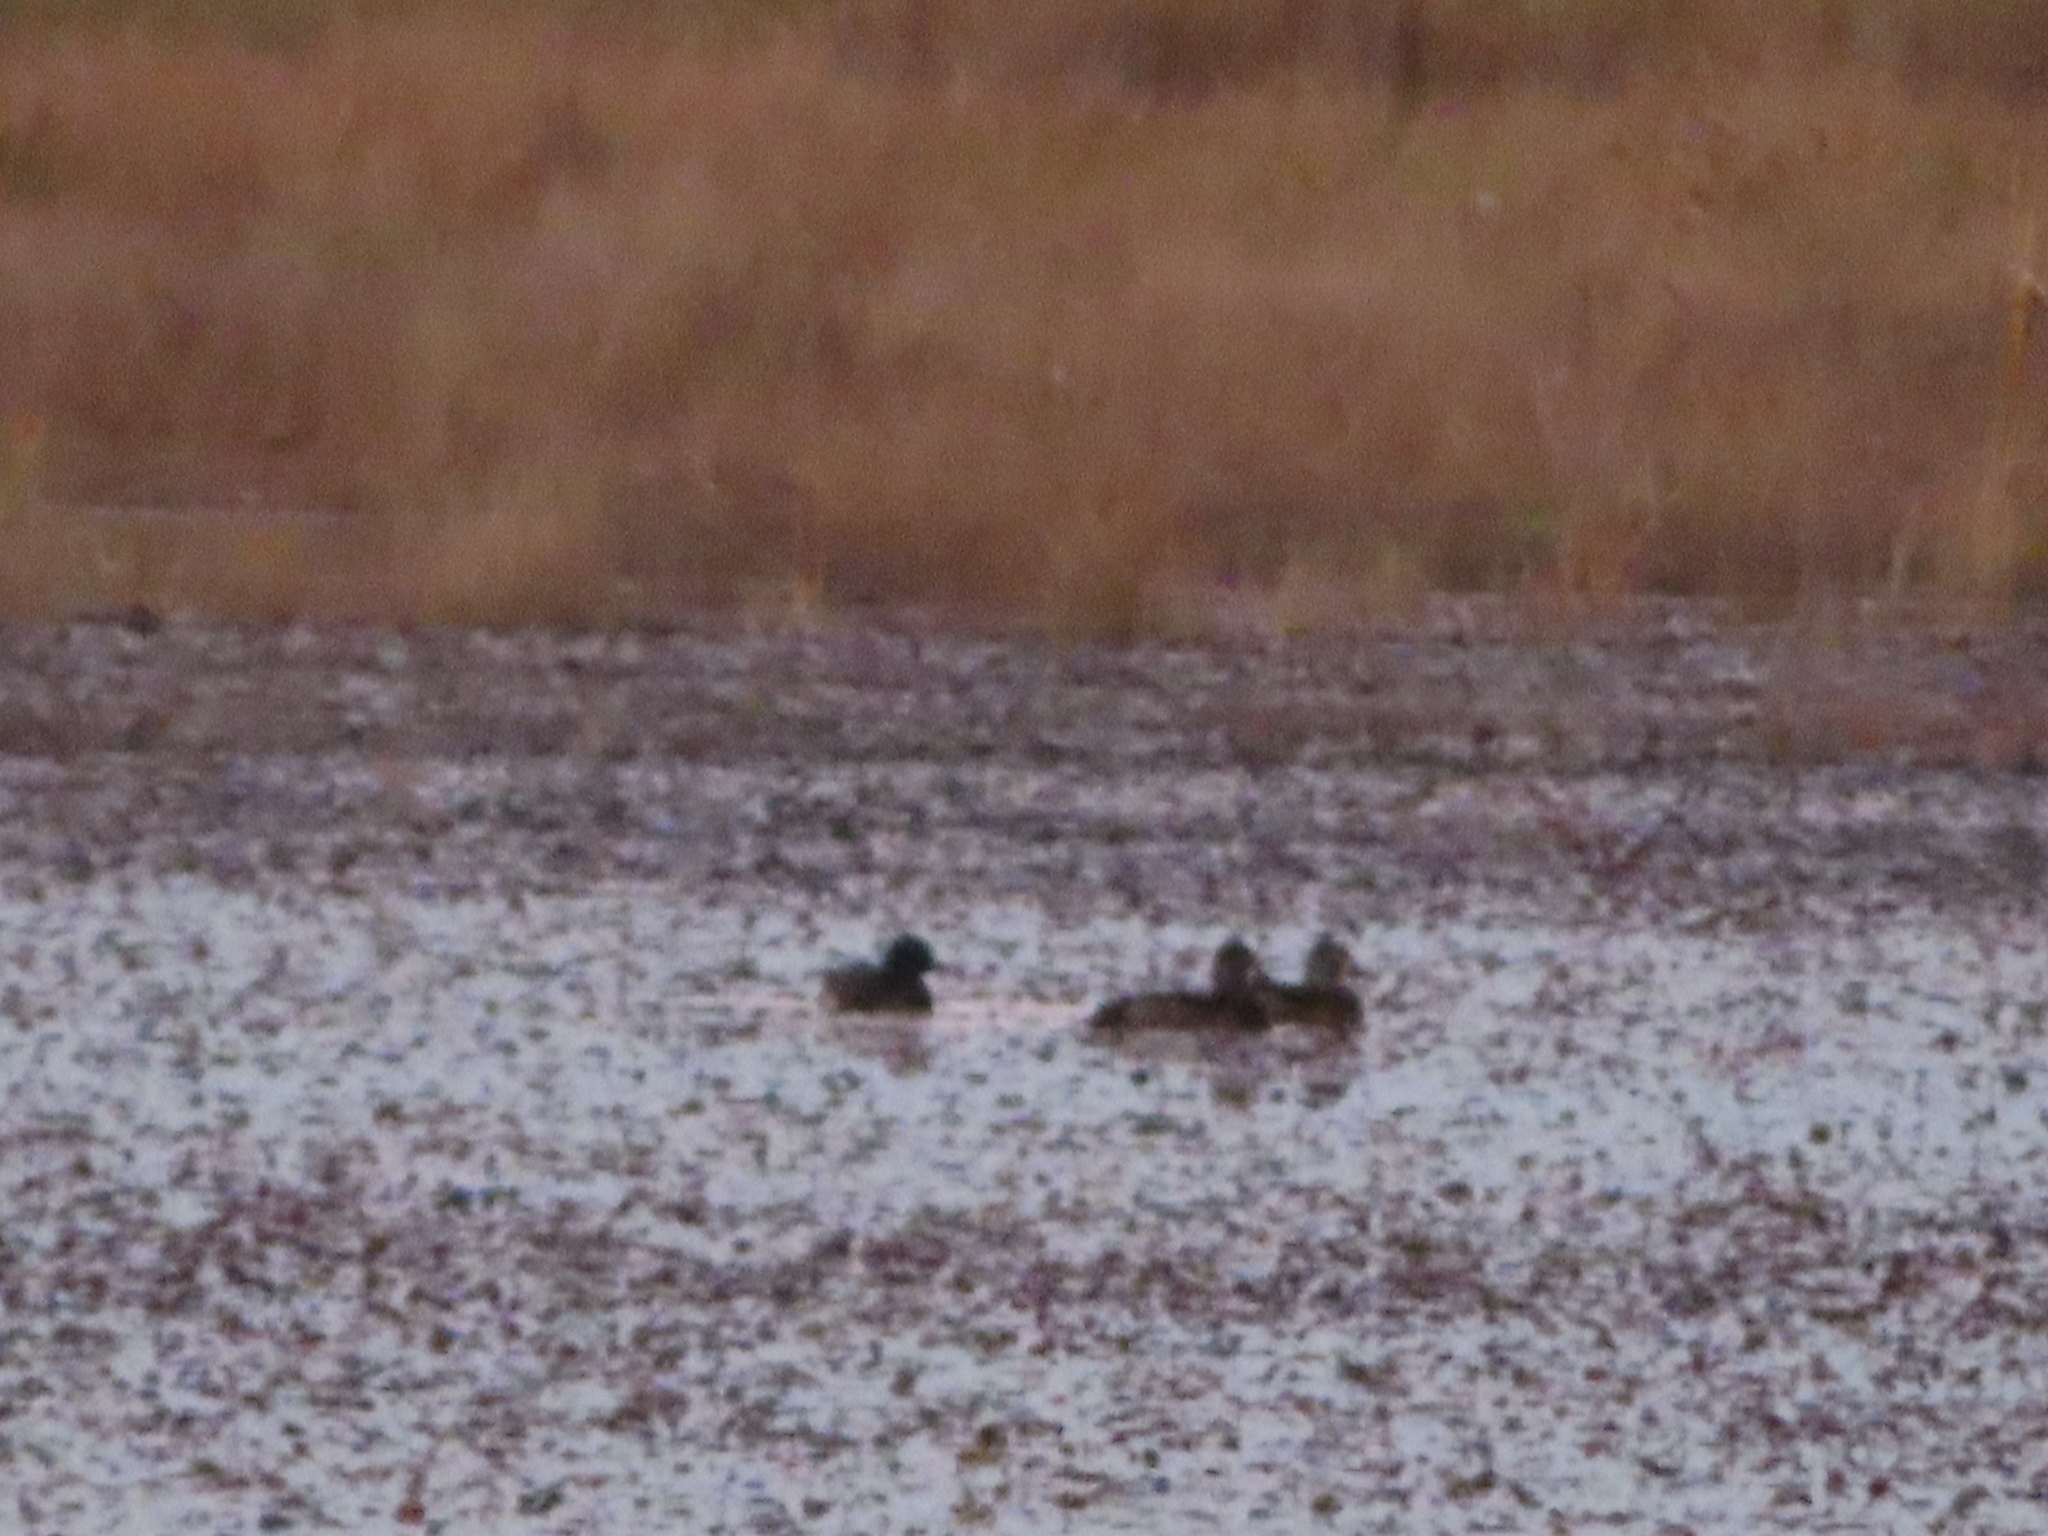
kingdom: Animalia
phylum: Chordata
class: Aves
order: Anseriformes
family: Anatidae
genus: Aythya
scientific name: Aythya collaris
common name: Ring-necked duck
